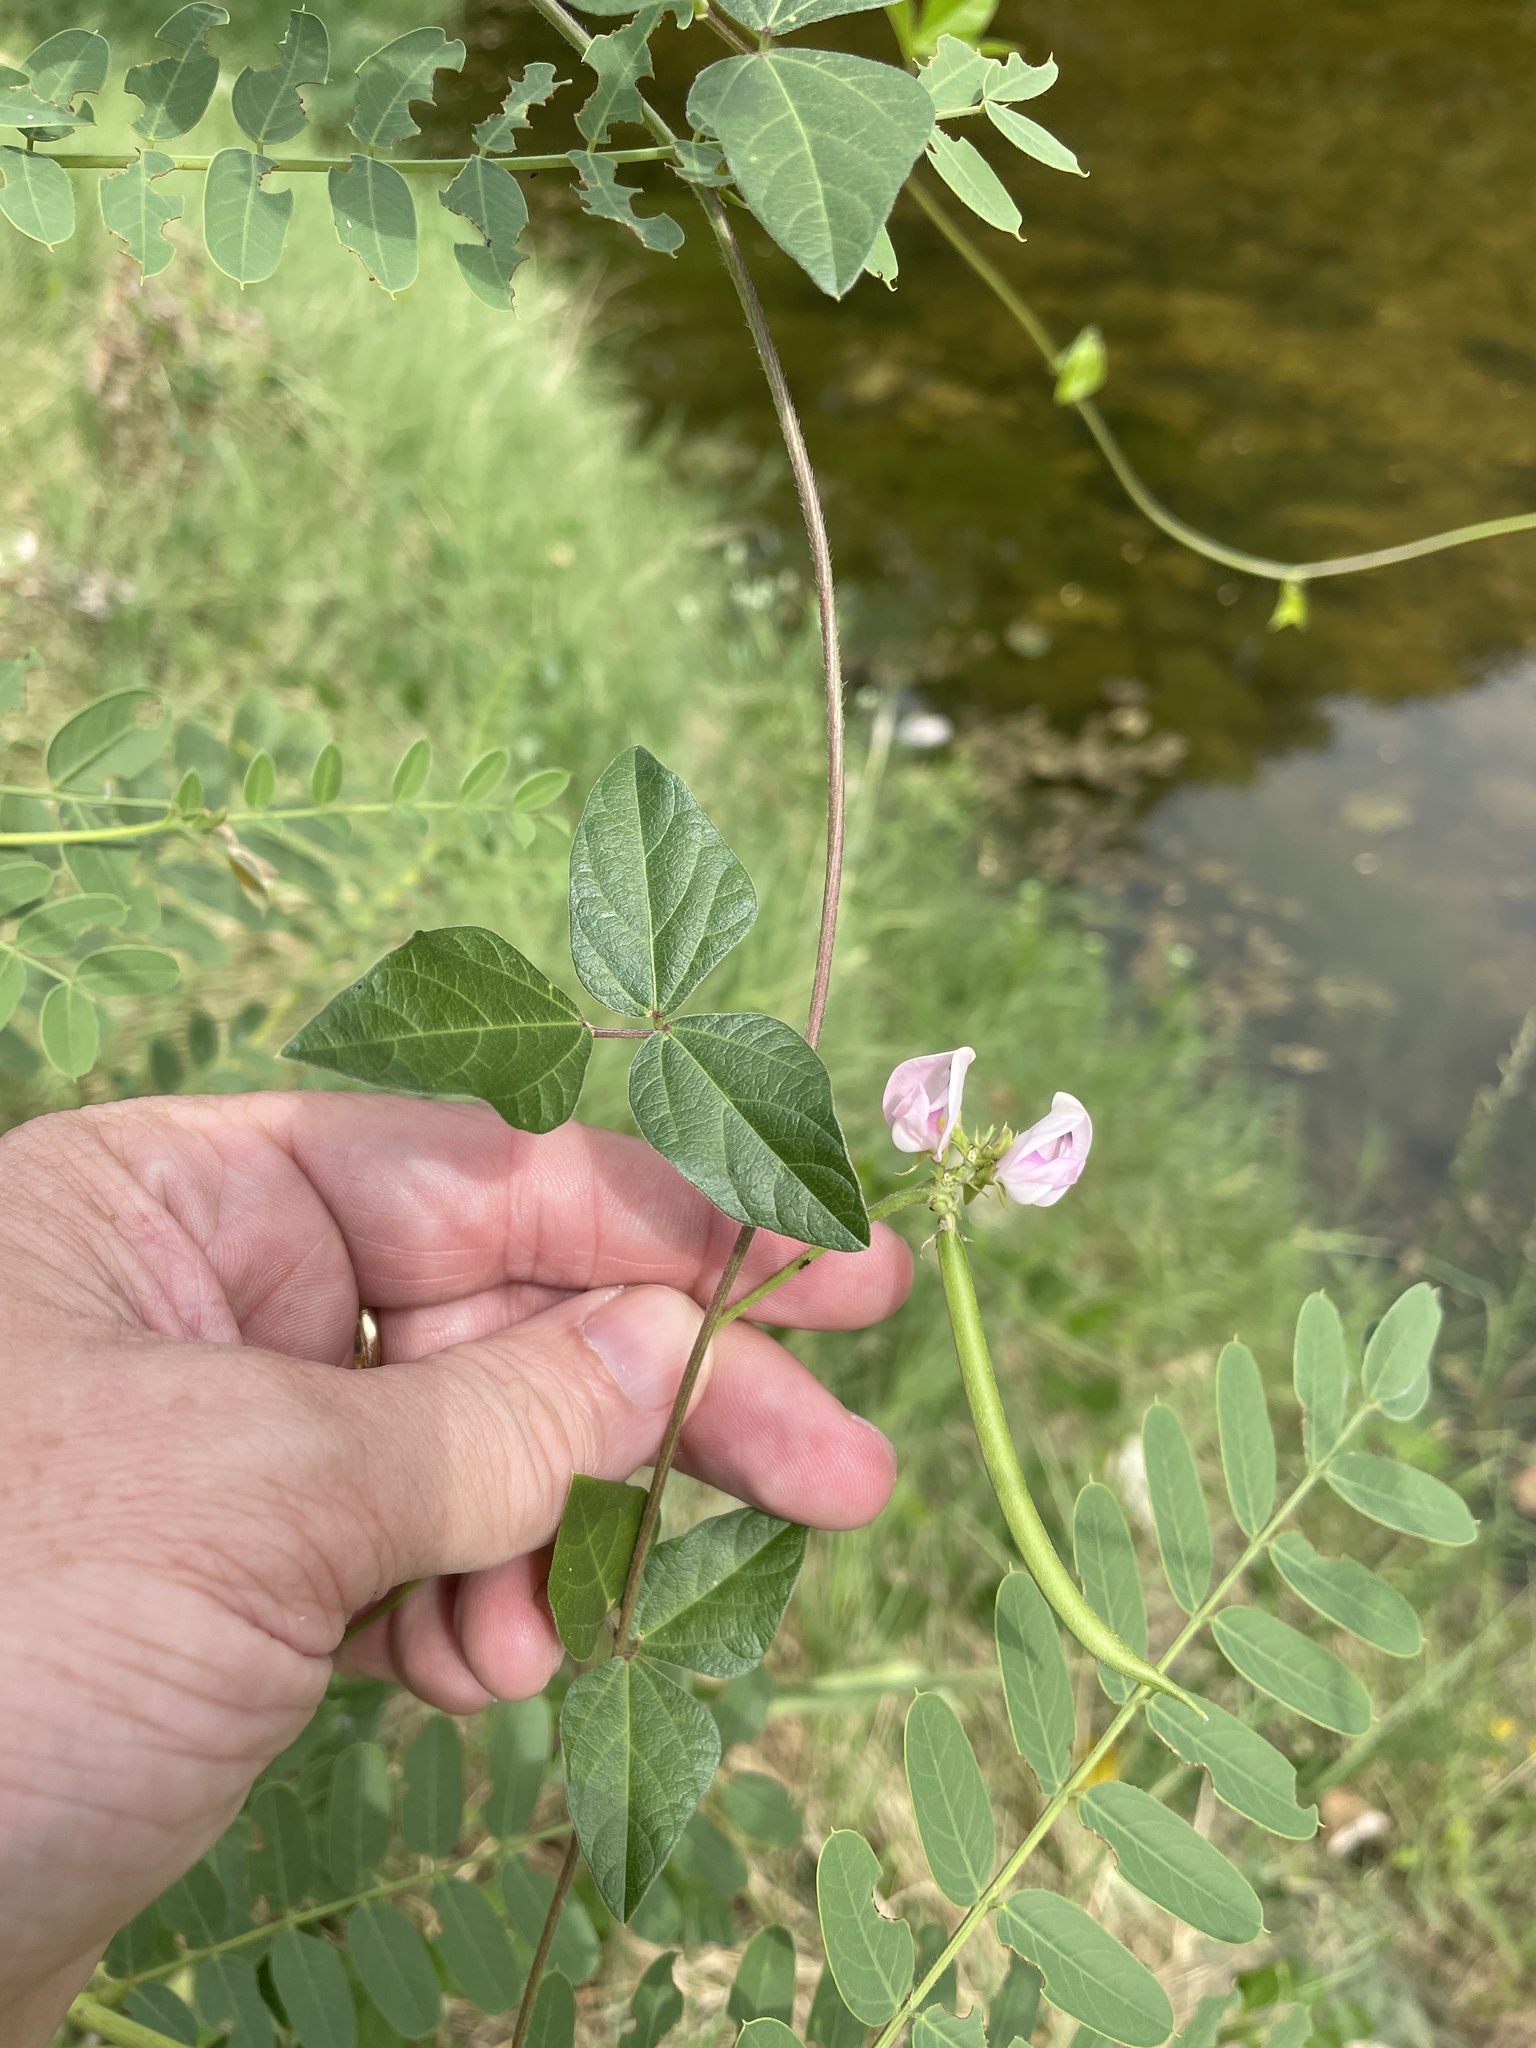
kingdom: Plantae
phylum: Tracheophyta
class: Magnoliopsida
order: Fabales
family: Fabaceae
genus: Strophostyles
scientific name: Strophostyles helvola
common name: Trailing wild bean
